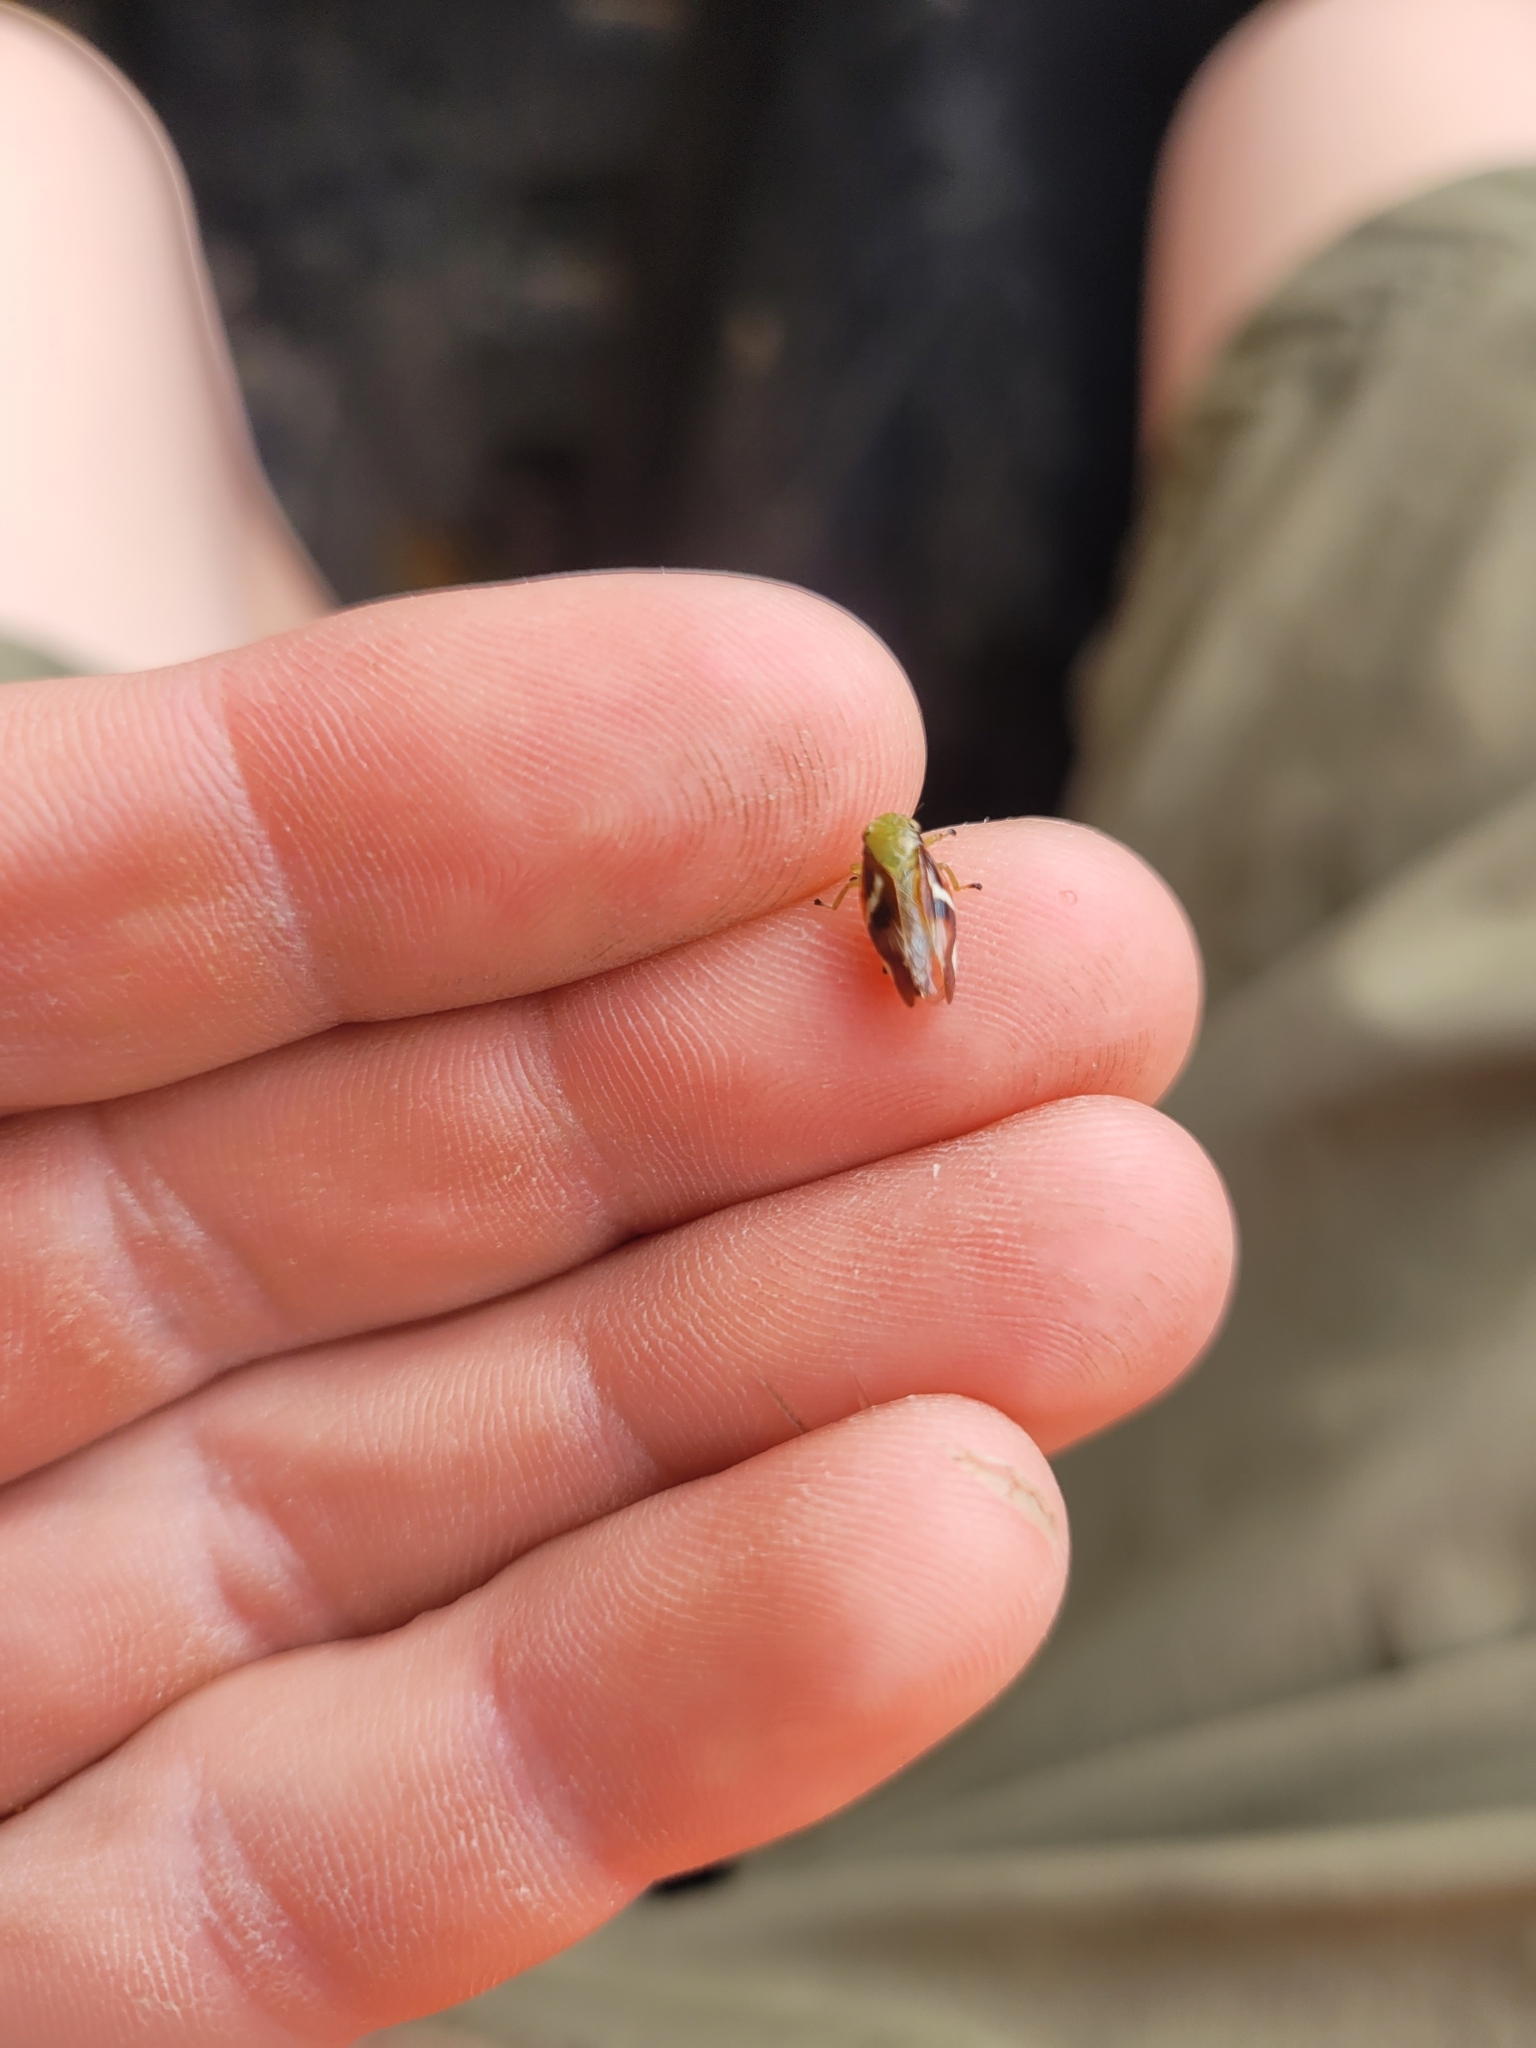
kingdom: Animalia
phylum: Arthropoda
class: Insecta
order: Hemiptera
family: Aphrophoridae
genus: Carystoterpa
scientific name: Carystoterpa fingens
